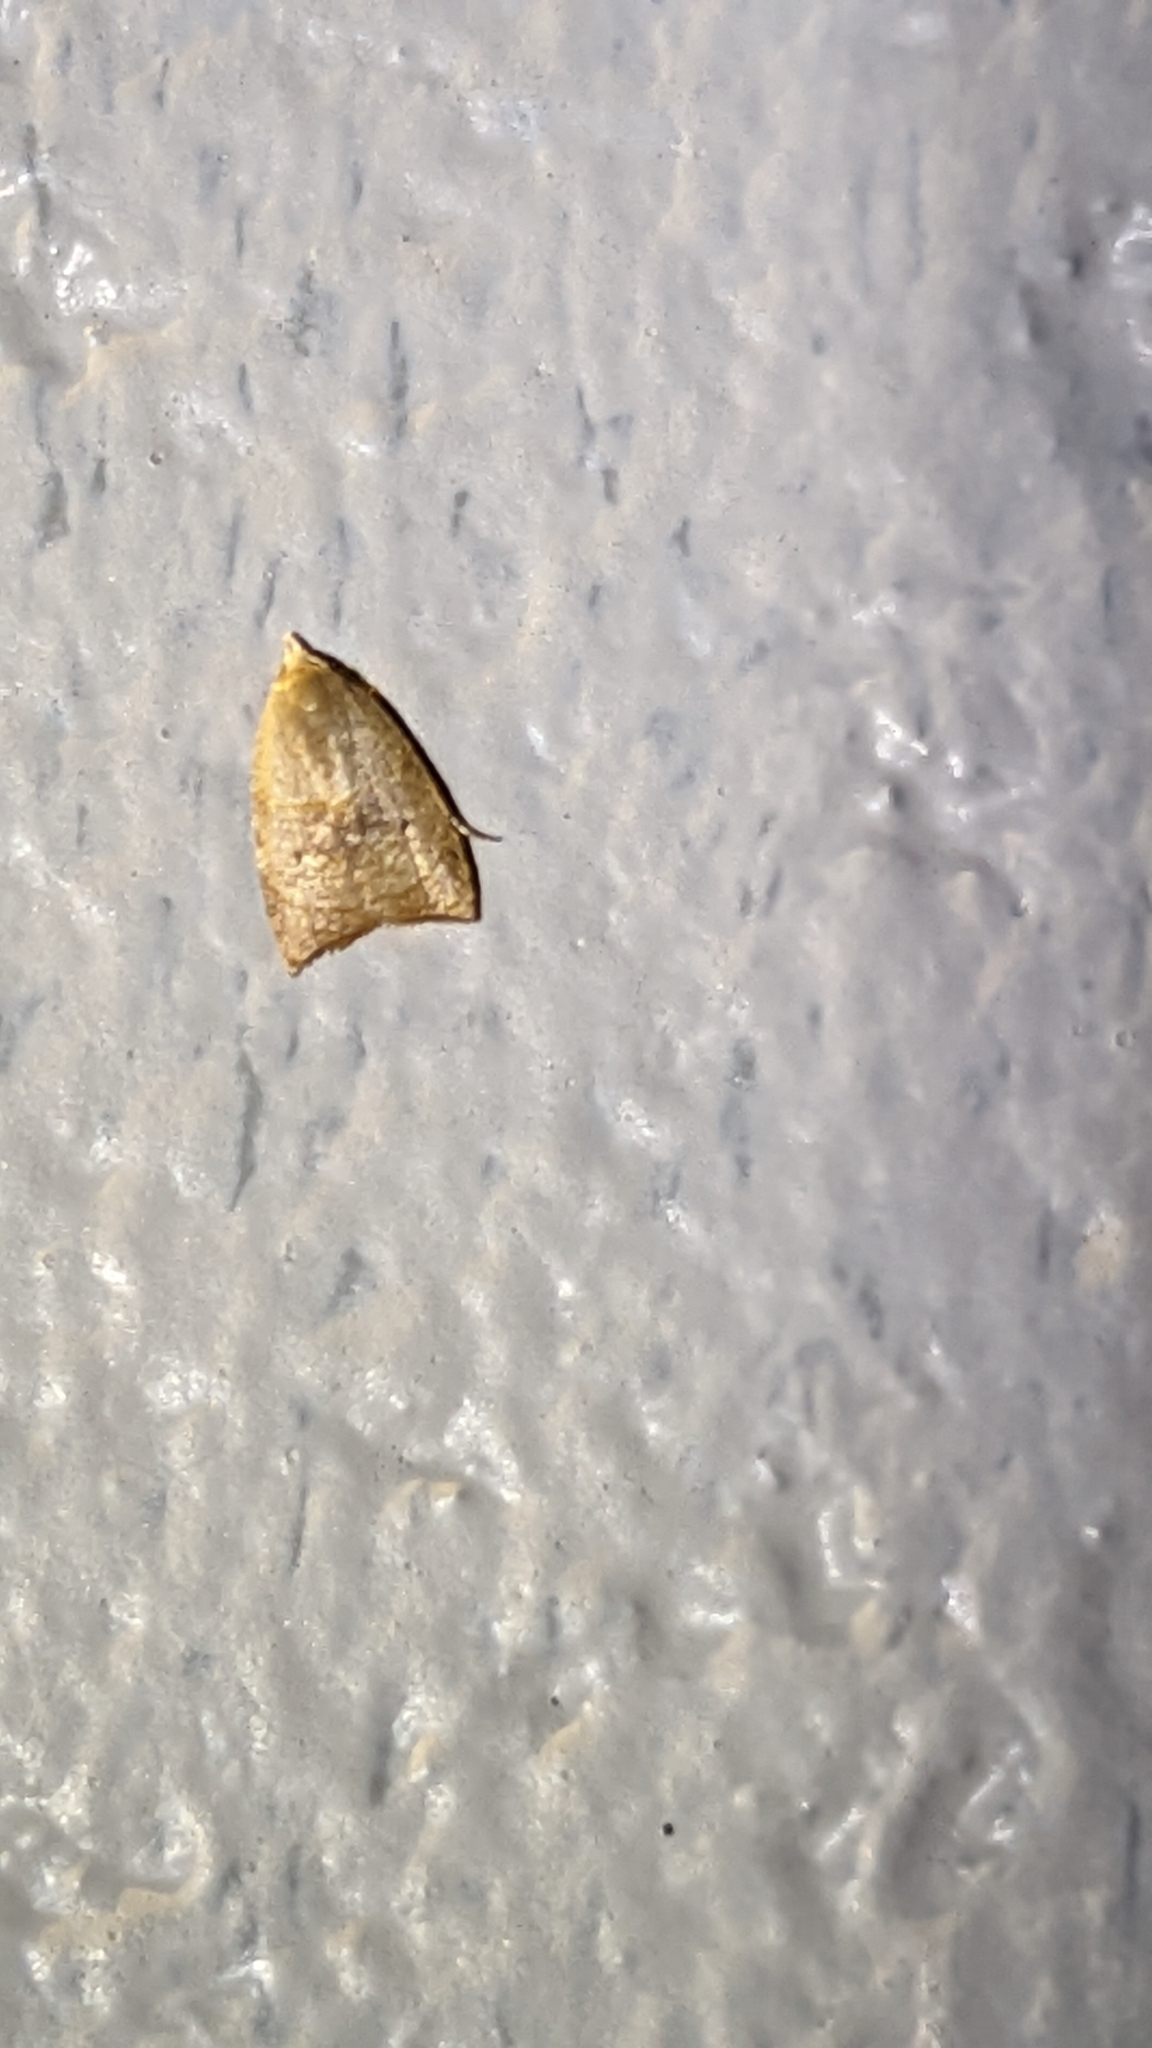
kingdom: Animalia
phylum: Arthropoda
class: Insecta
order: Lepidoptera
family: Tortricidae
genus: Coelostathma
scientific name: Coelostathma discopunctana
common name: Batman moth
